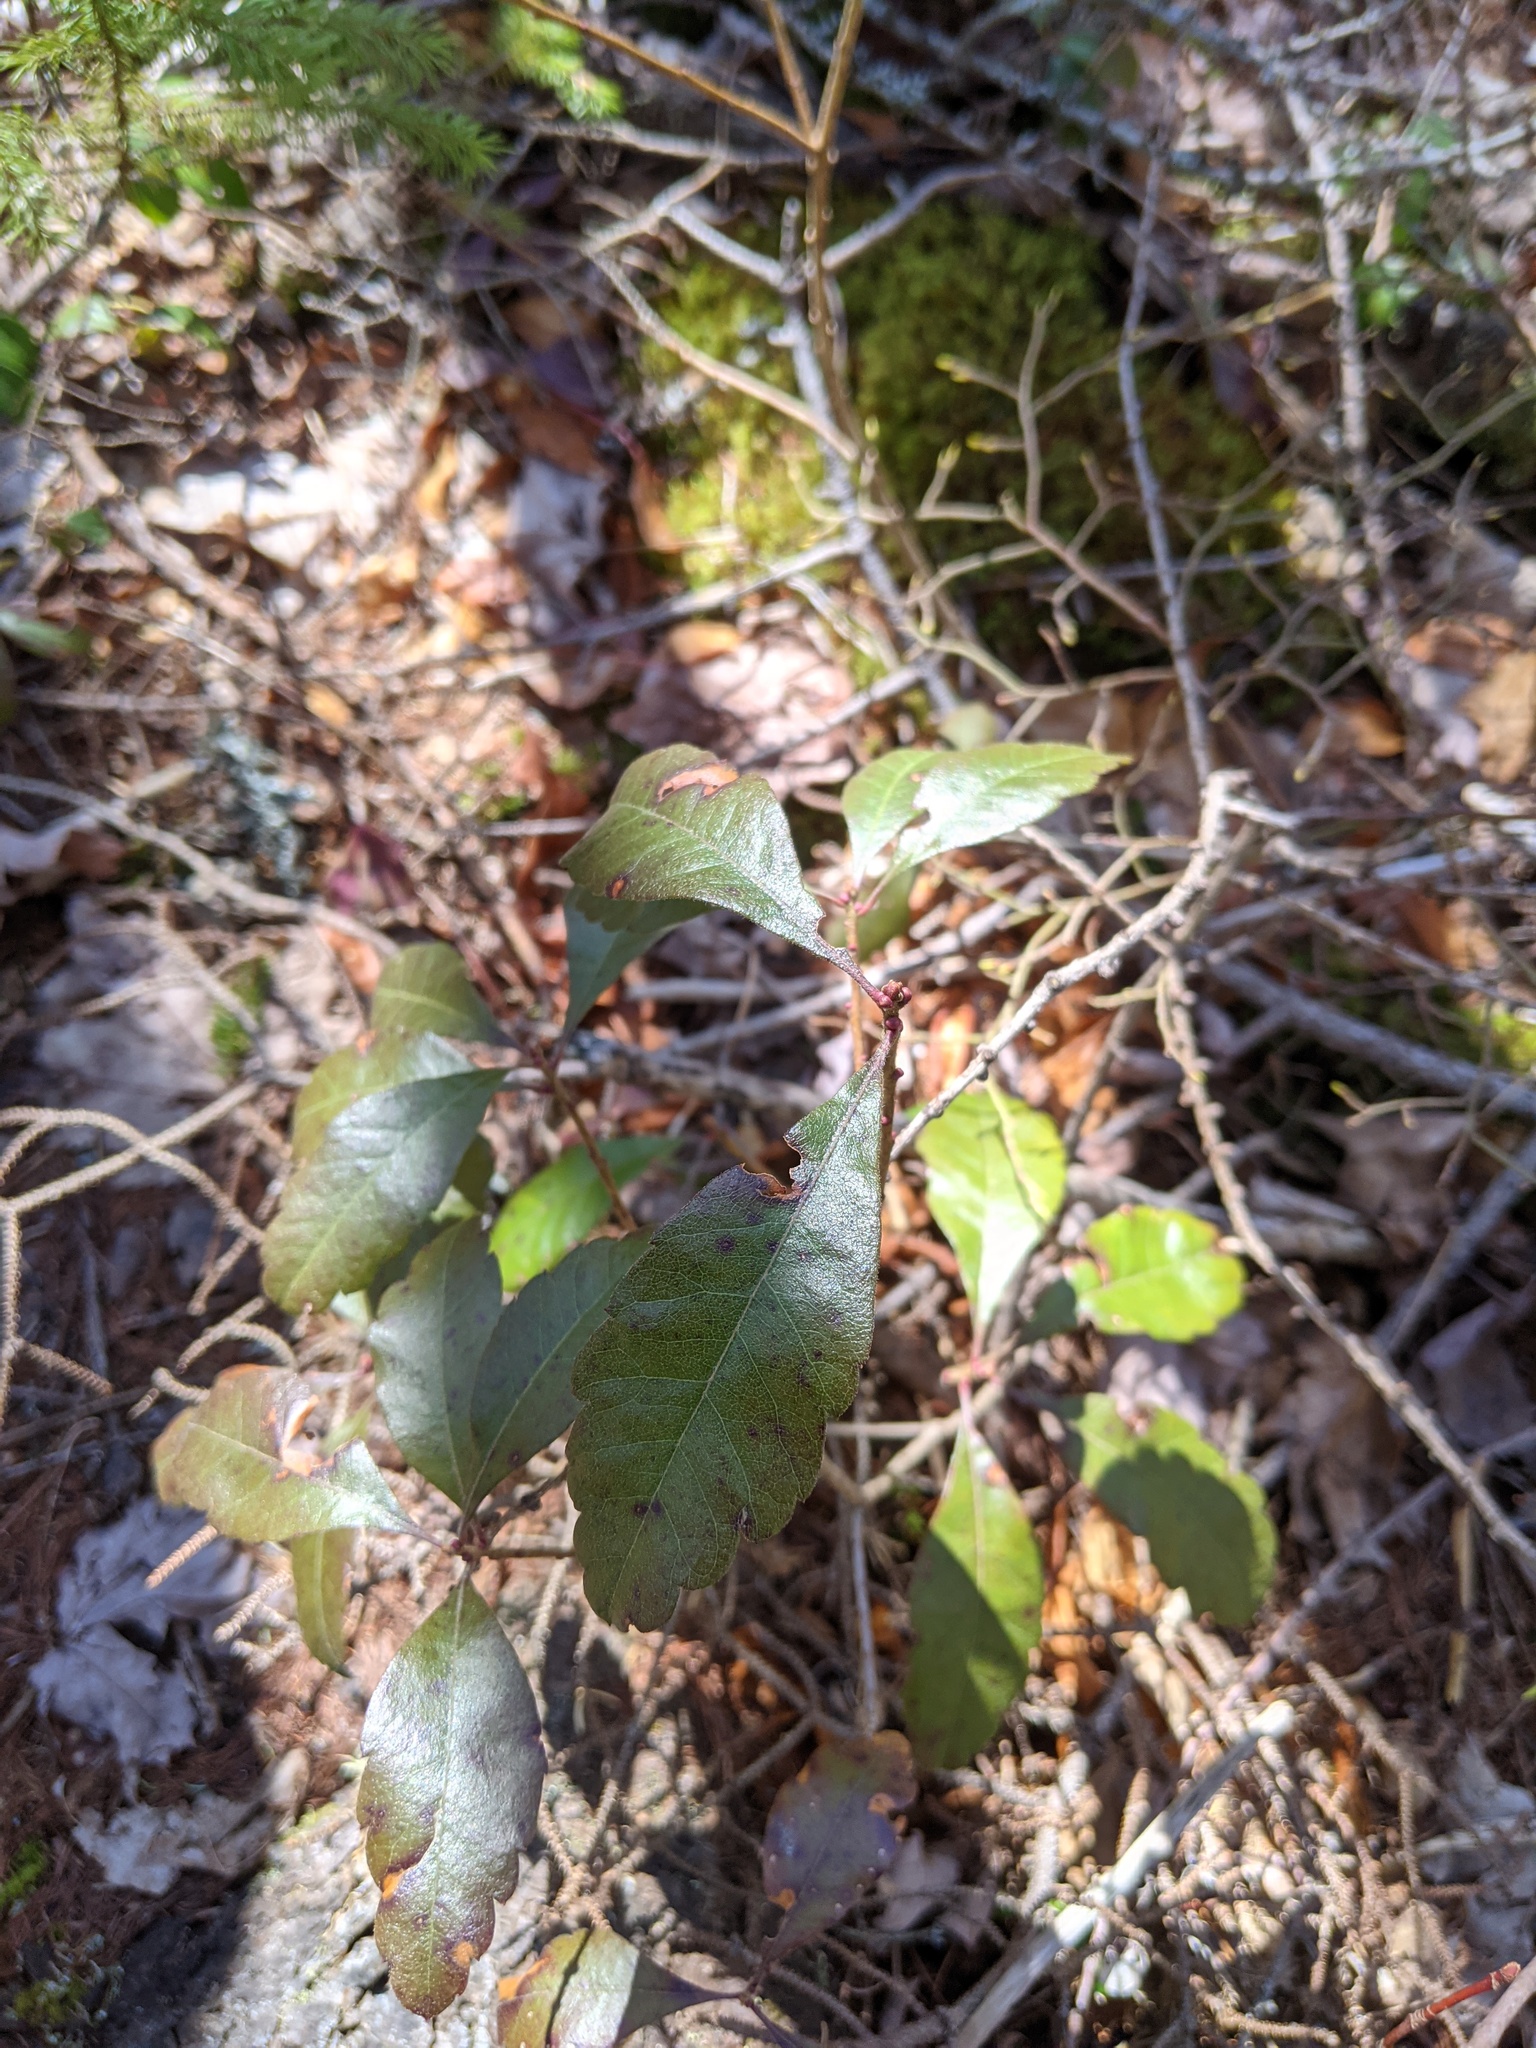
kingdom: Plantae
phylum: Tracheophyta
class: Magnoliopsida
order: Fagales
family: Myricaceae
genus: Morella
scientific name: Morella pensylvanica
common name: Northern bayberry
